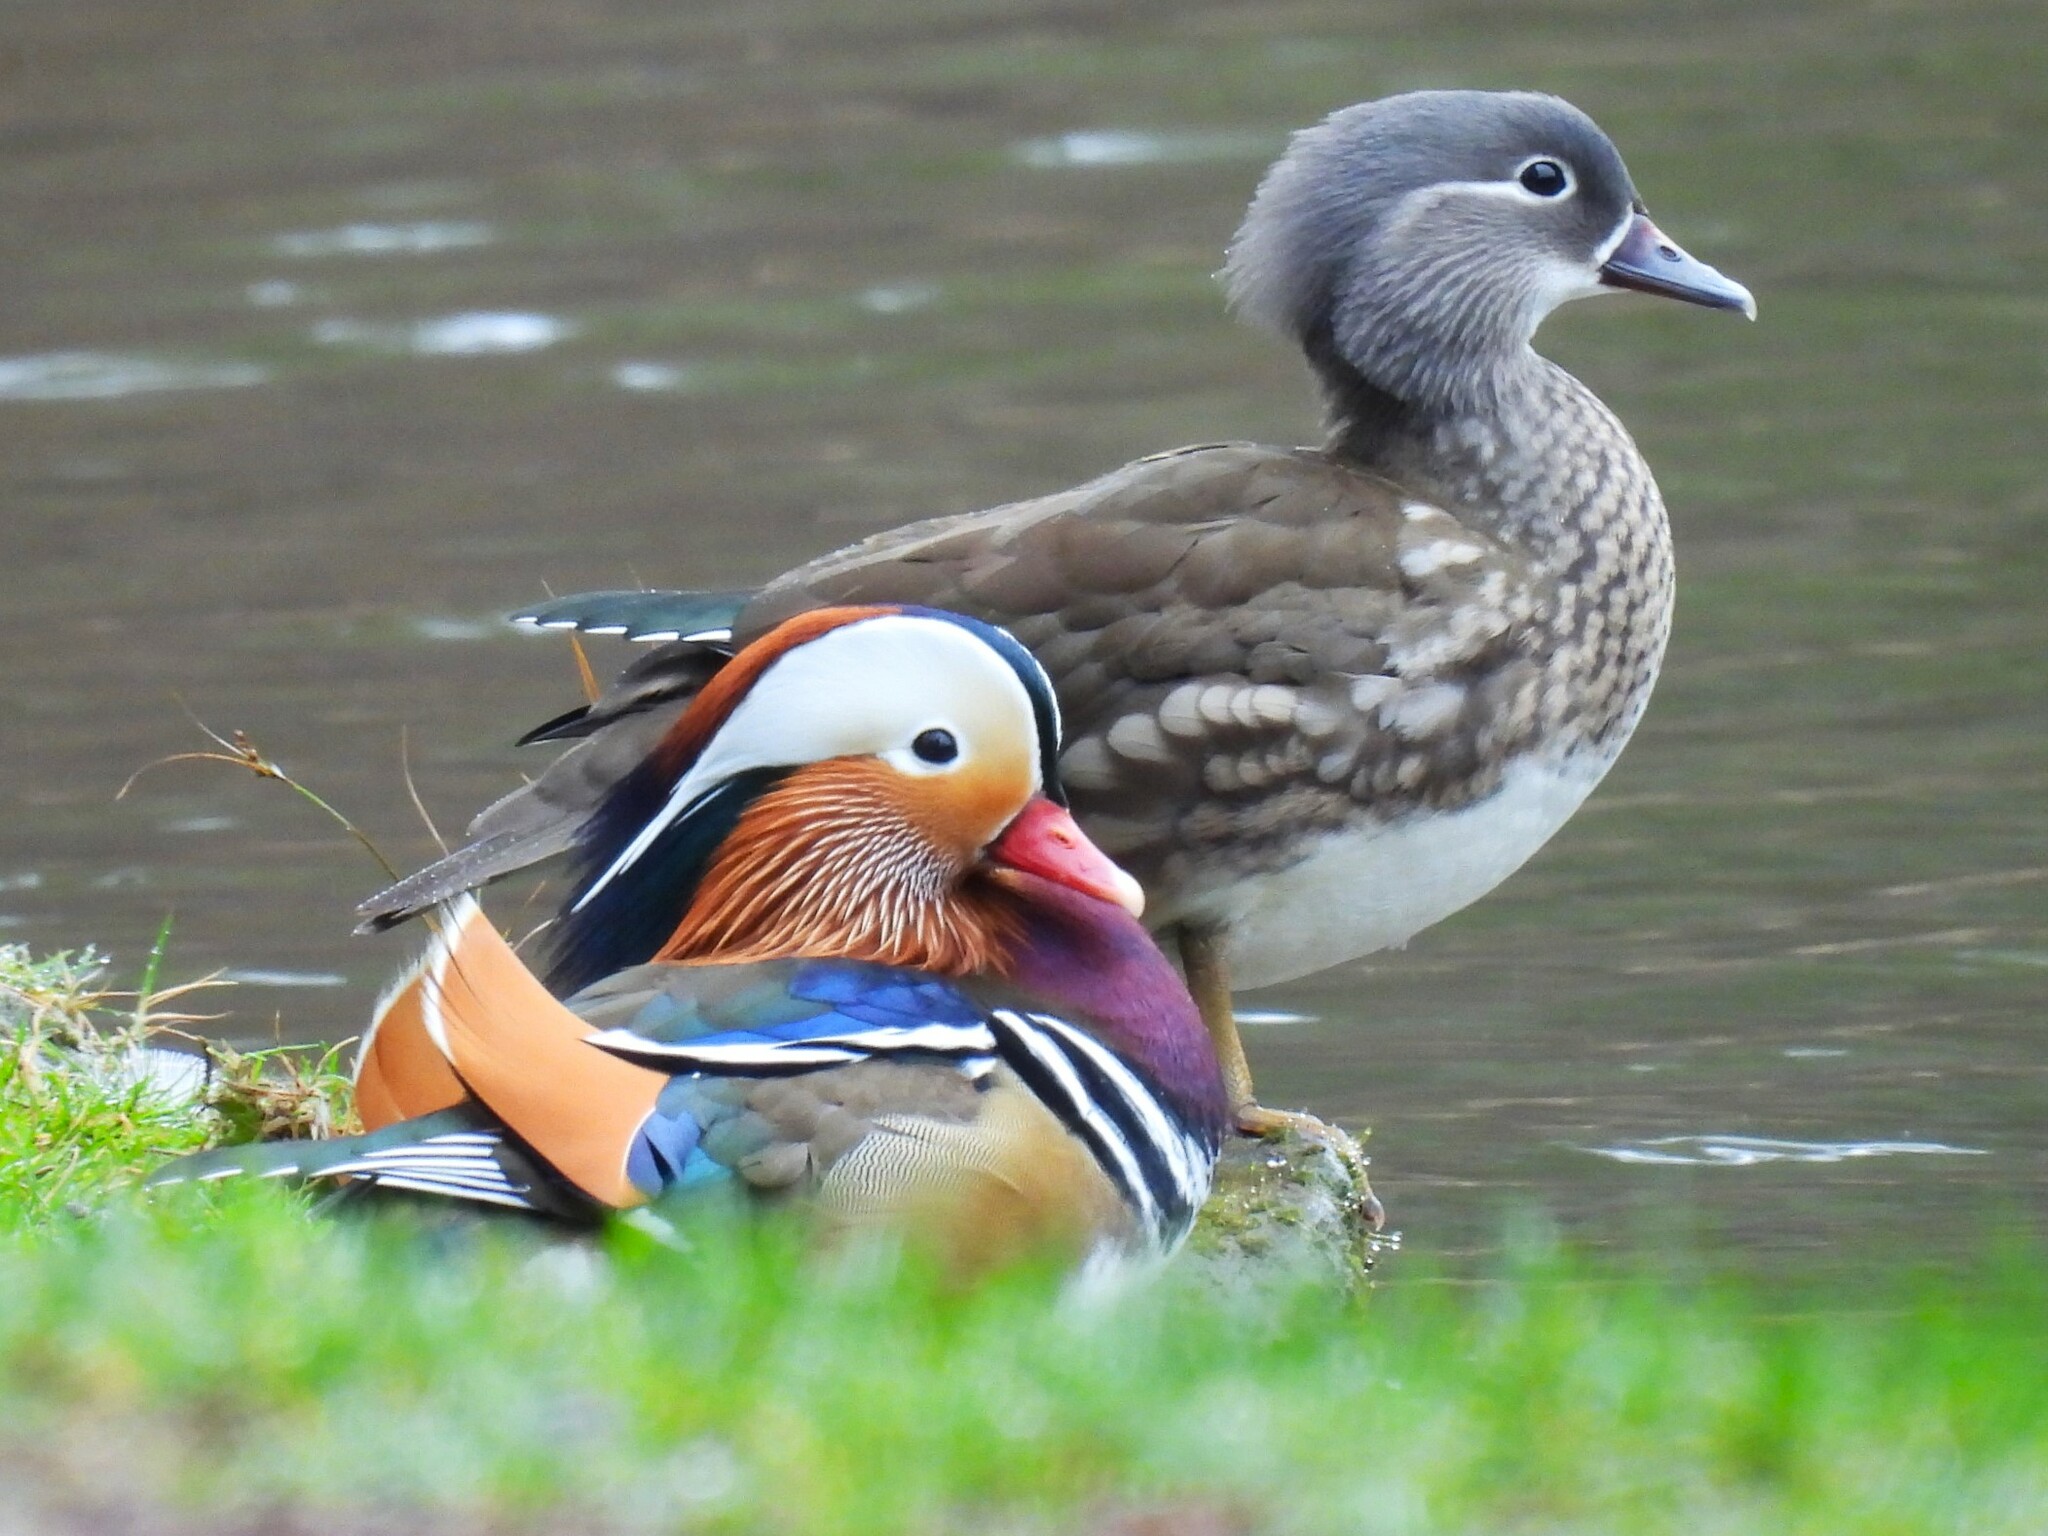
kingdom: Animalia
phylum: Chordata
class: Aves
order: Anseriformes
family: Anatidae
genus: Aix
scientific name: Aix galericulata
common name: Mandarin duck
